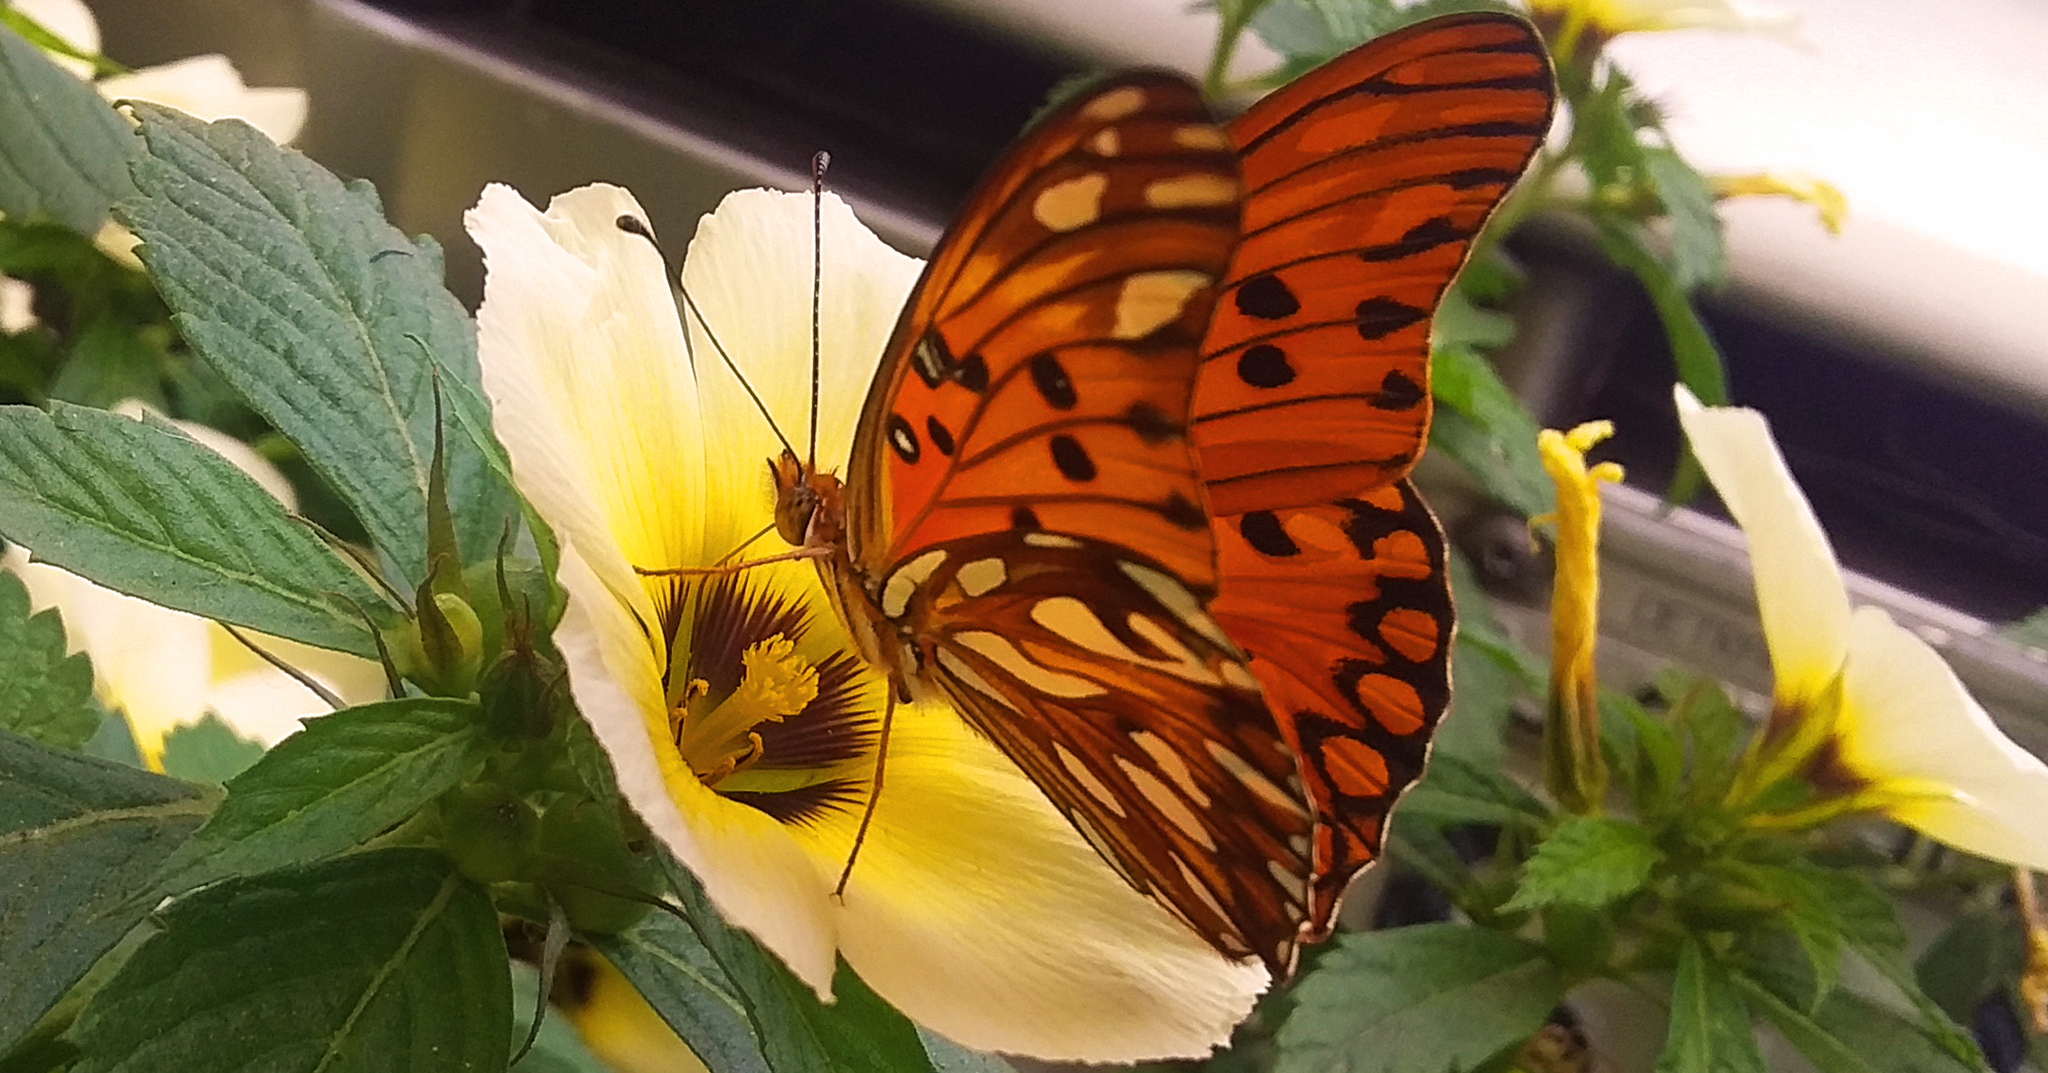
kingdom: Animalia
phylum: Arthropoda
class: Insecta
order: Lepidoptera
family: Nymphalidae
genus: Dione
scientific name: Dione vanillae
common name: Gulf fritillary
